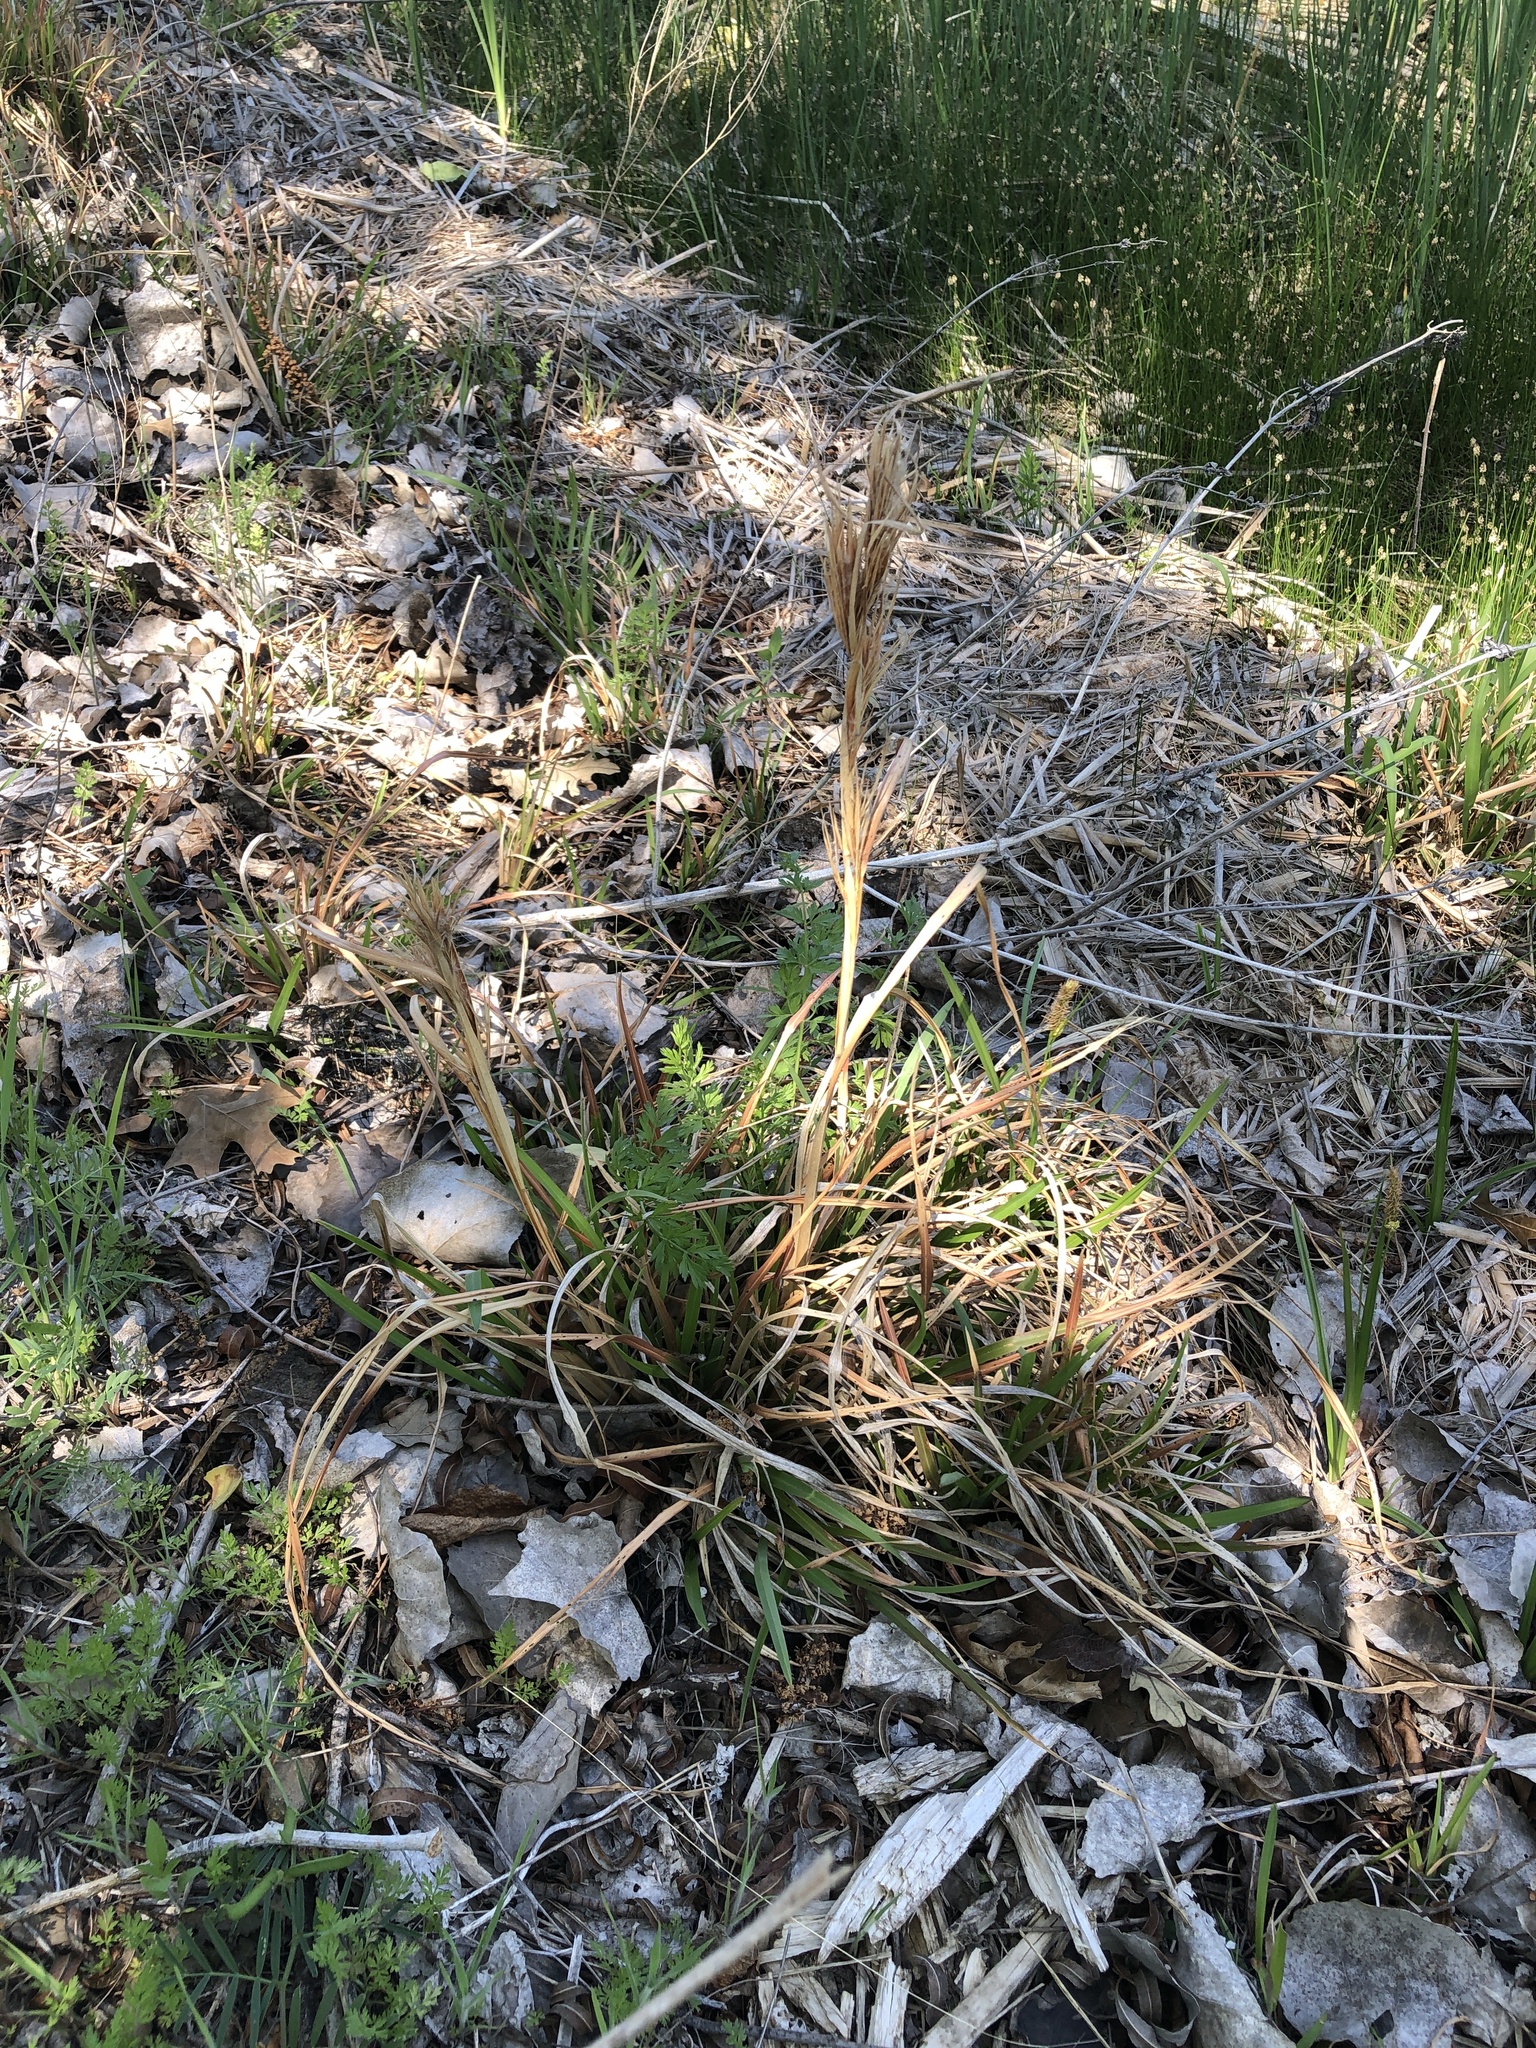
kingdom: Plantae
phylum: Tracheophyta
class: Liliopsida
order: Poales
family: Poaceae
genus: Andropogon
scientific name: Andropogon tenuispatheus
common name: Bushy bluestem
